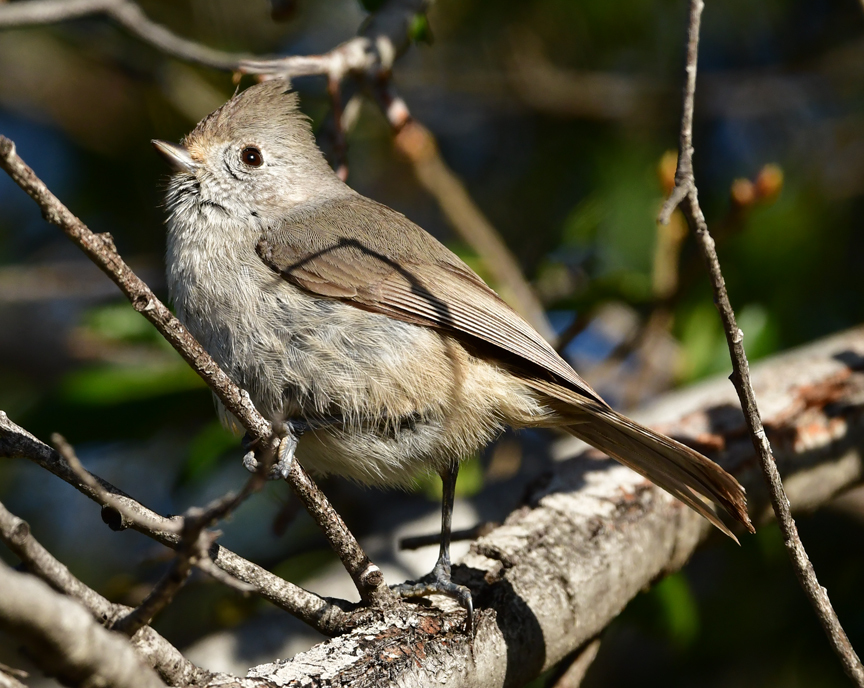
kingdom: Animalia
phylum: Chordata
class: Aves
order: Passeriformes
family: Paridae
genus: Baeolophus
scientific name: Baeolophus inornatus
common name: Oak titmouse
